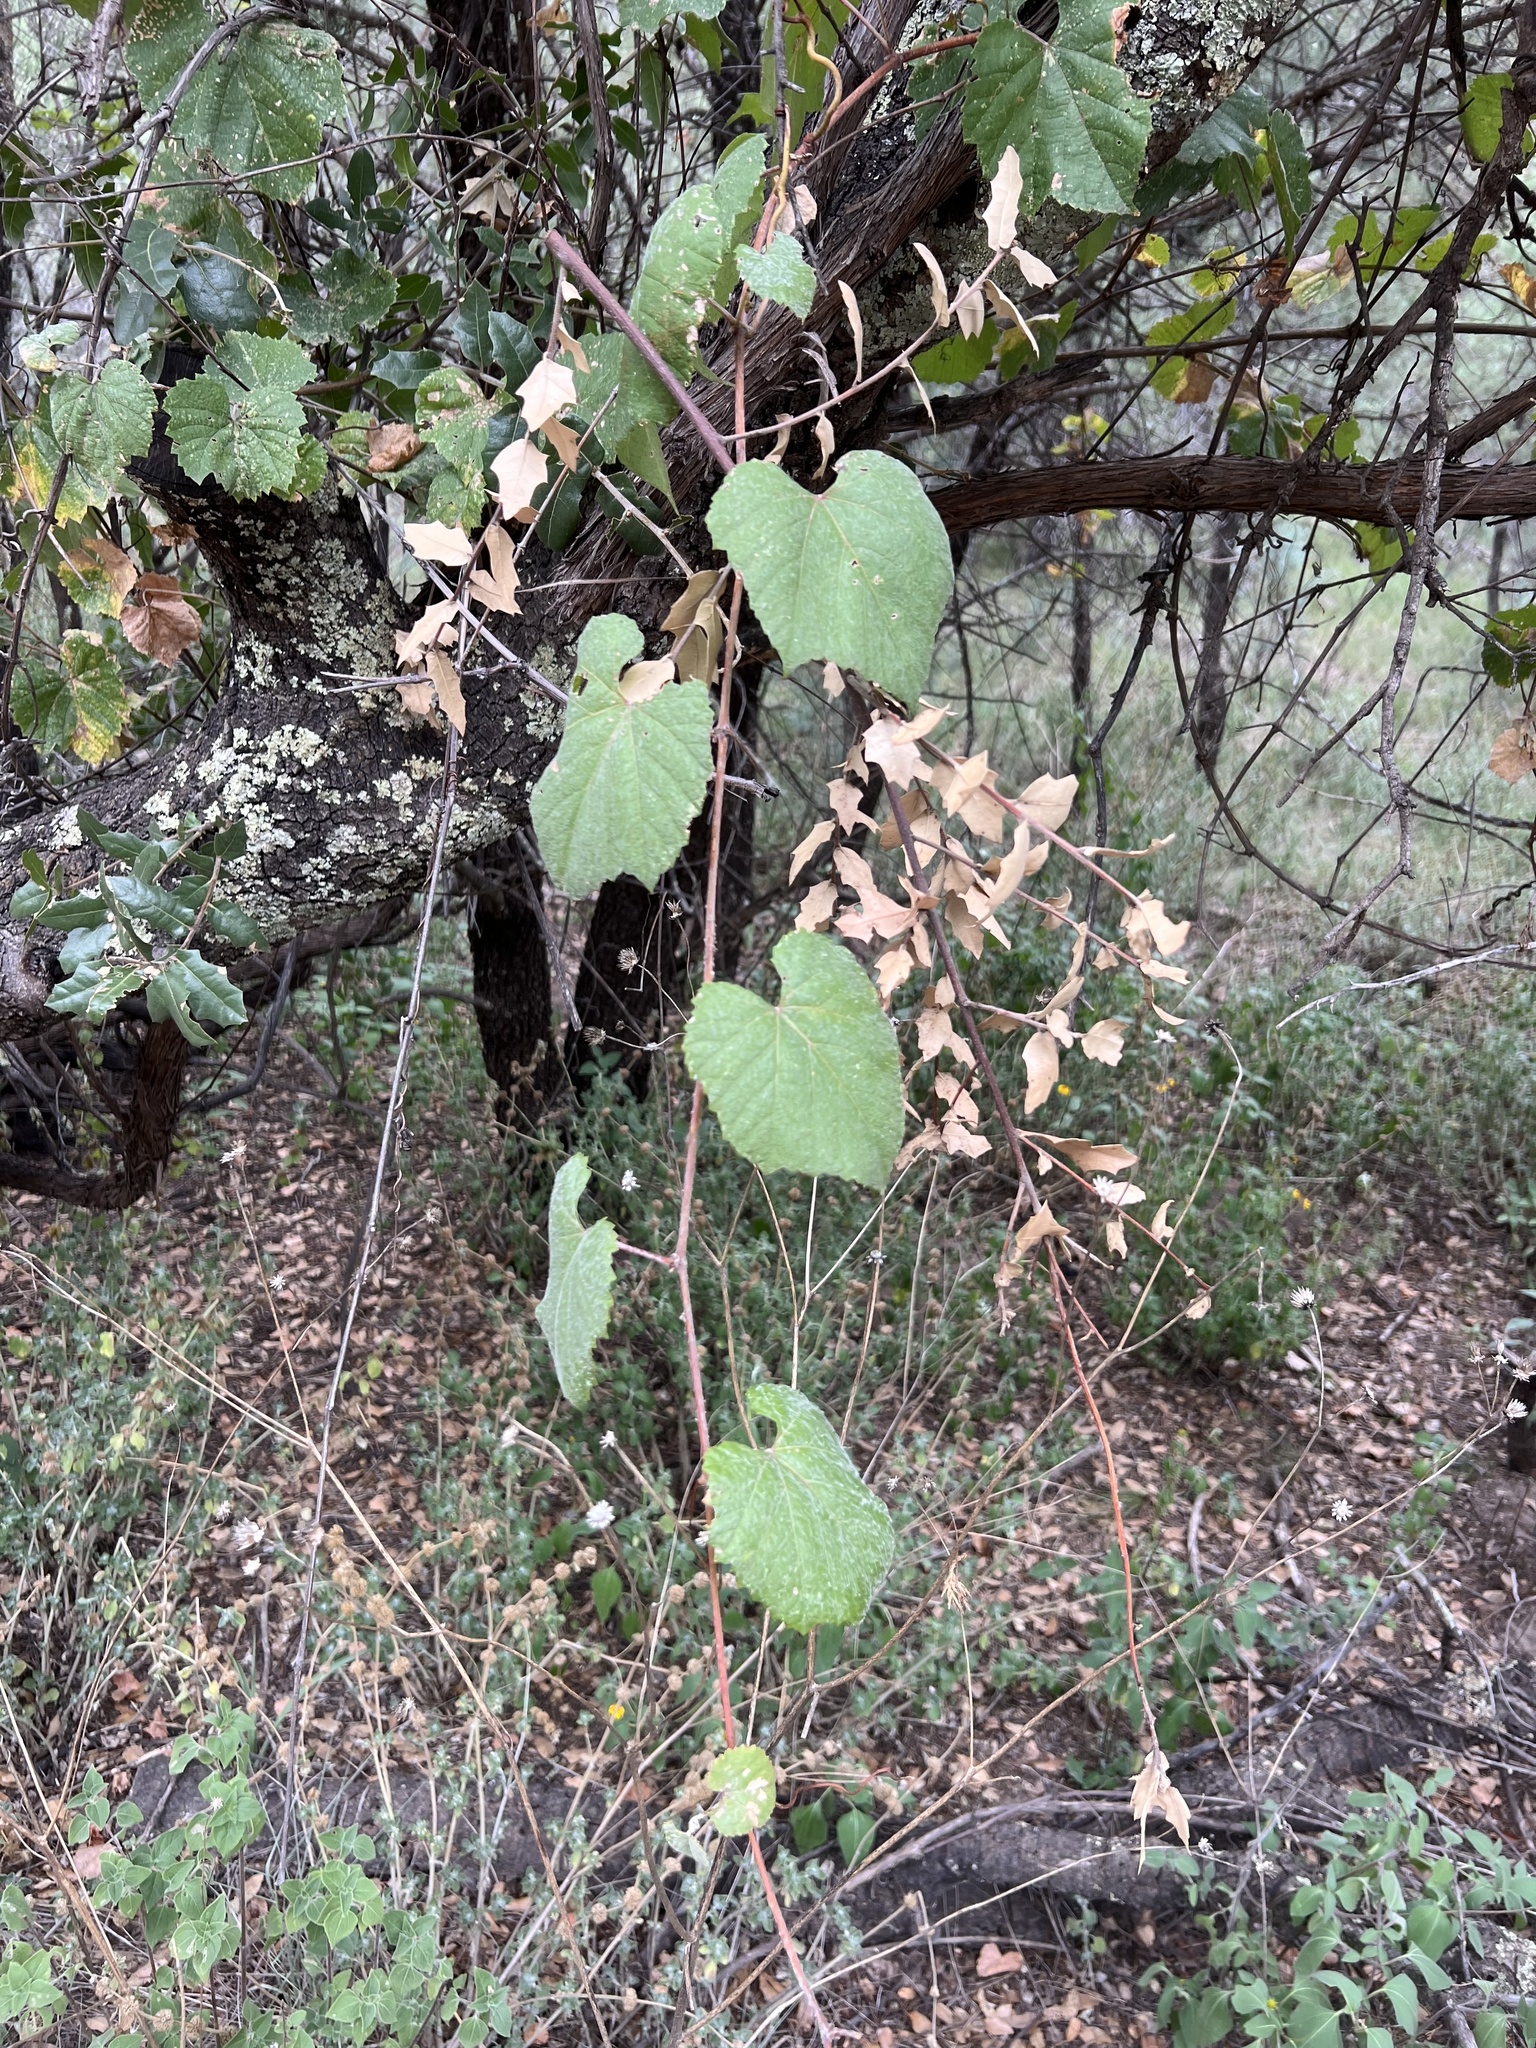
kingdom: Plantae
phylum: Tracheophyta
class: Magnoliopsida
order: Vitales
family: Vitaceae
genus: Vitis
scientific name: Vitis arizonica
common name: Canyon grape
